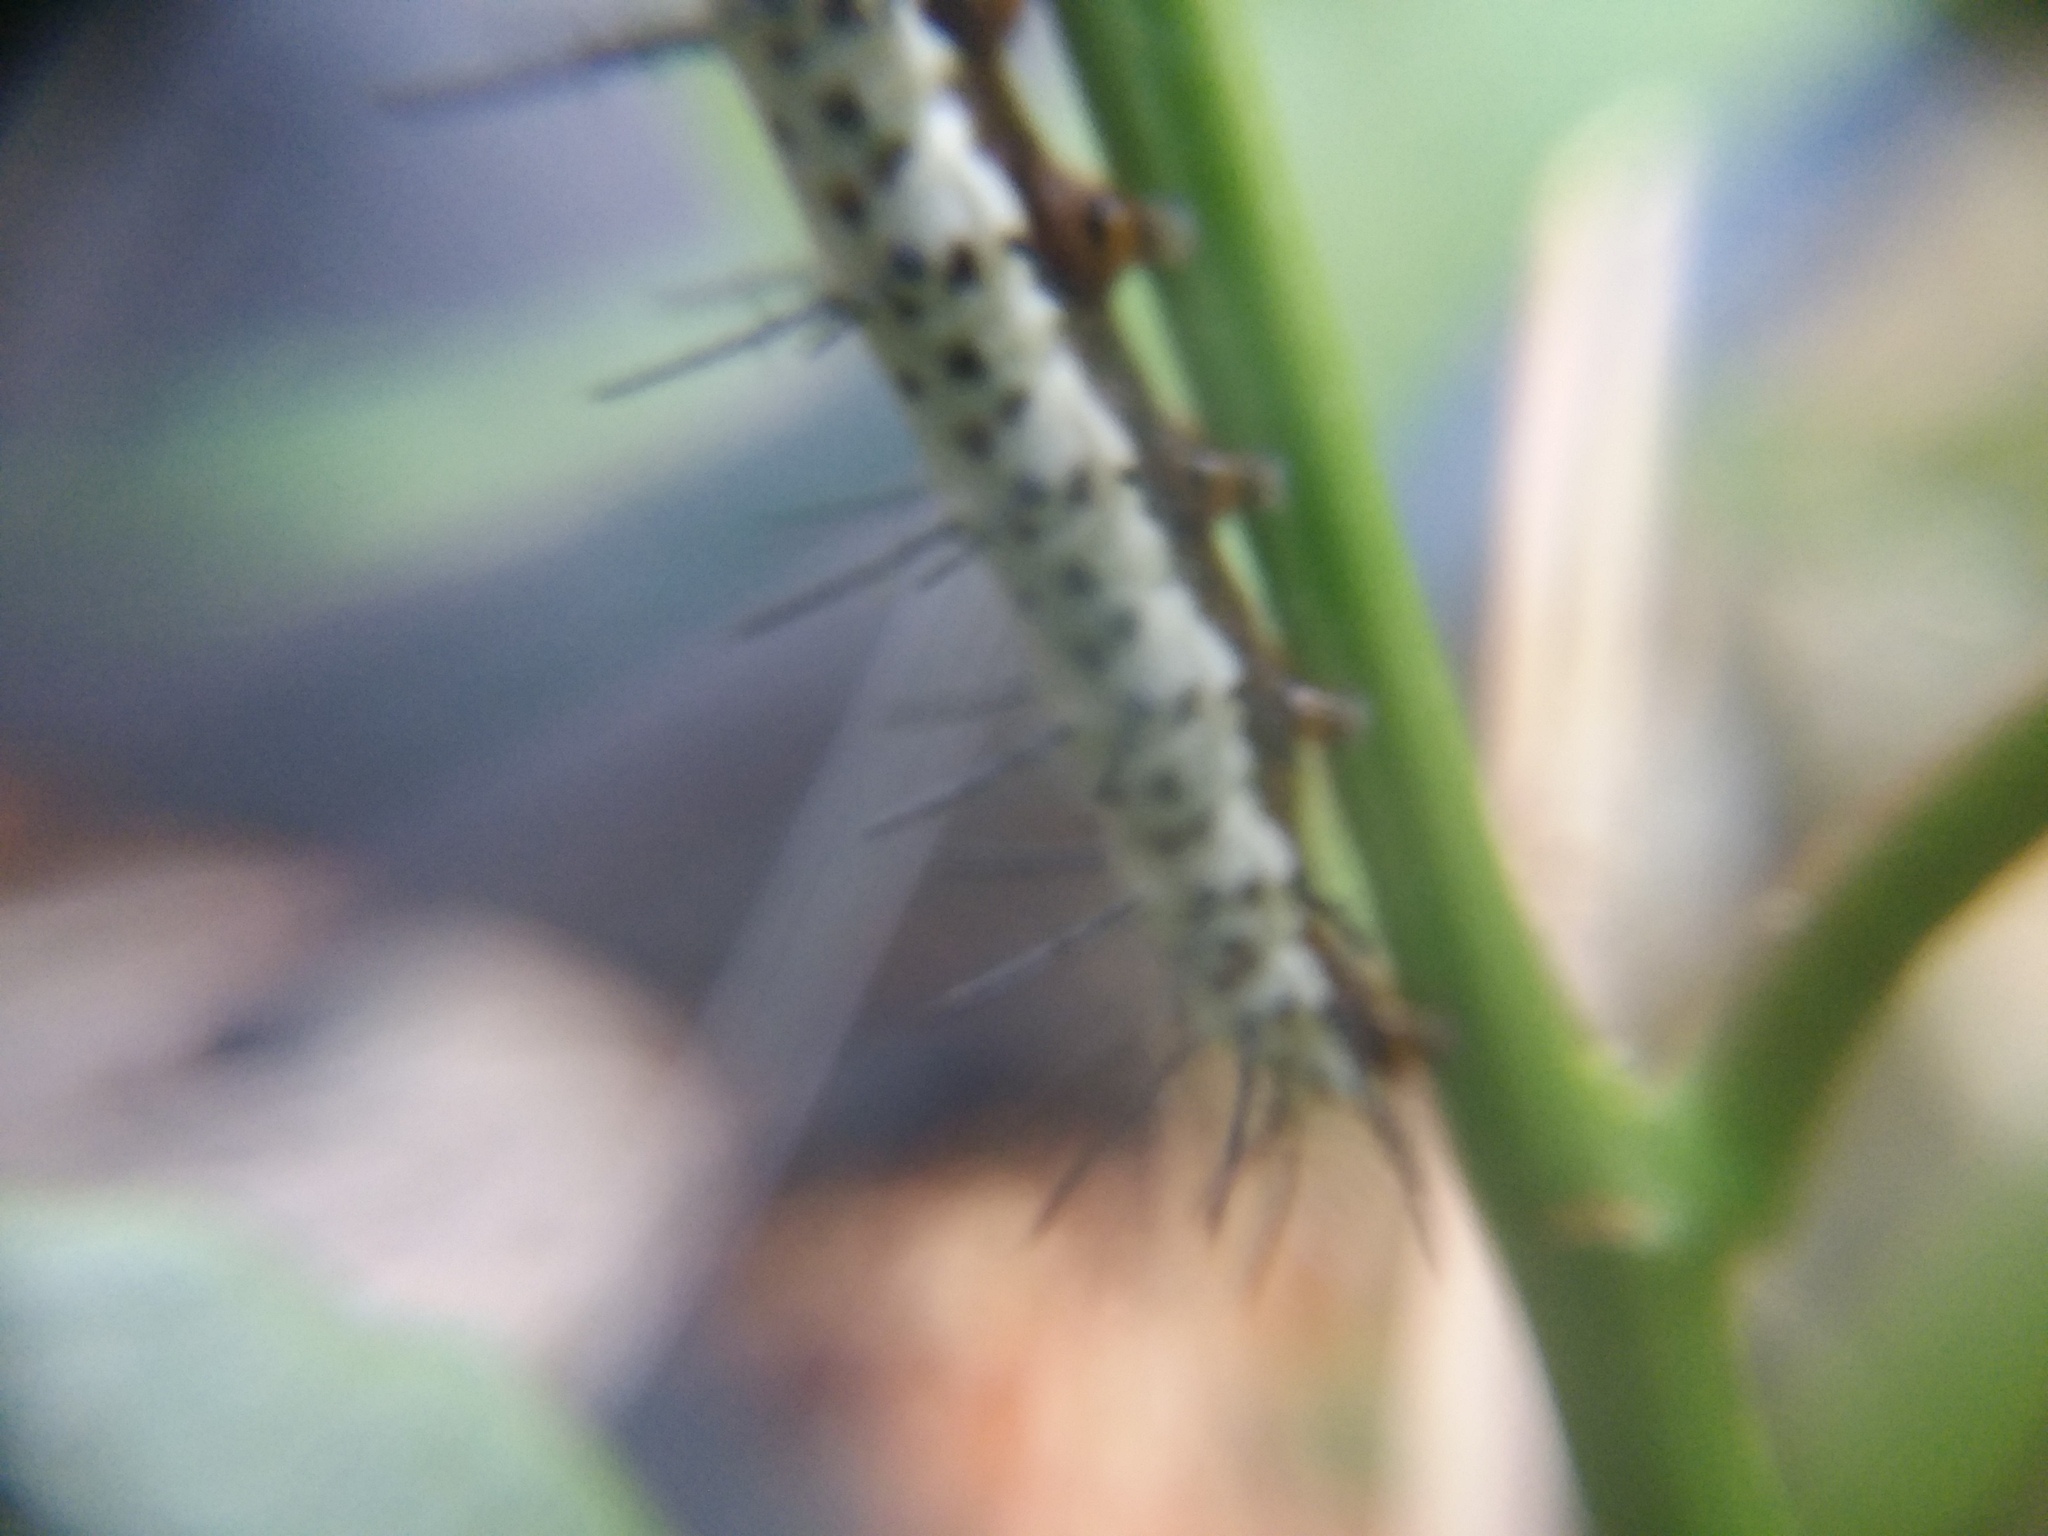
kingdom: Animalia
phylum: Arthropoda
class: Insecta
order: Lepidoptera
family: Nymphalidae
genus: Heliconius
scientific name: Heliconius charithonia
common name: Zebra long wing
